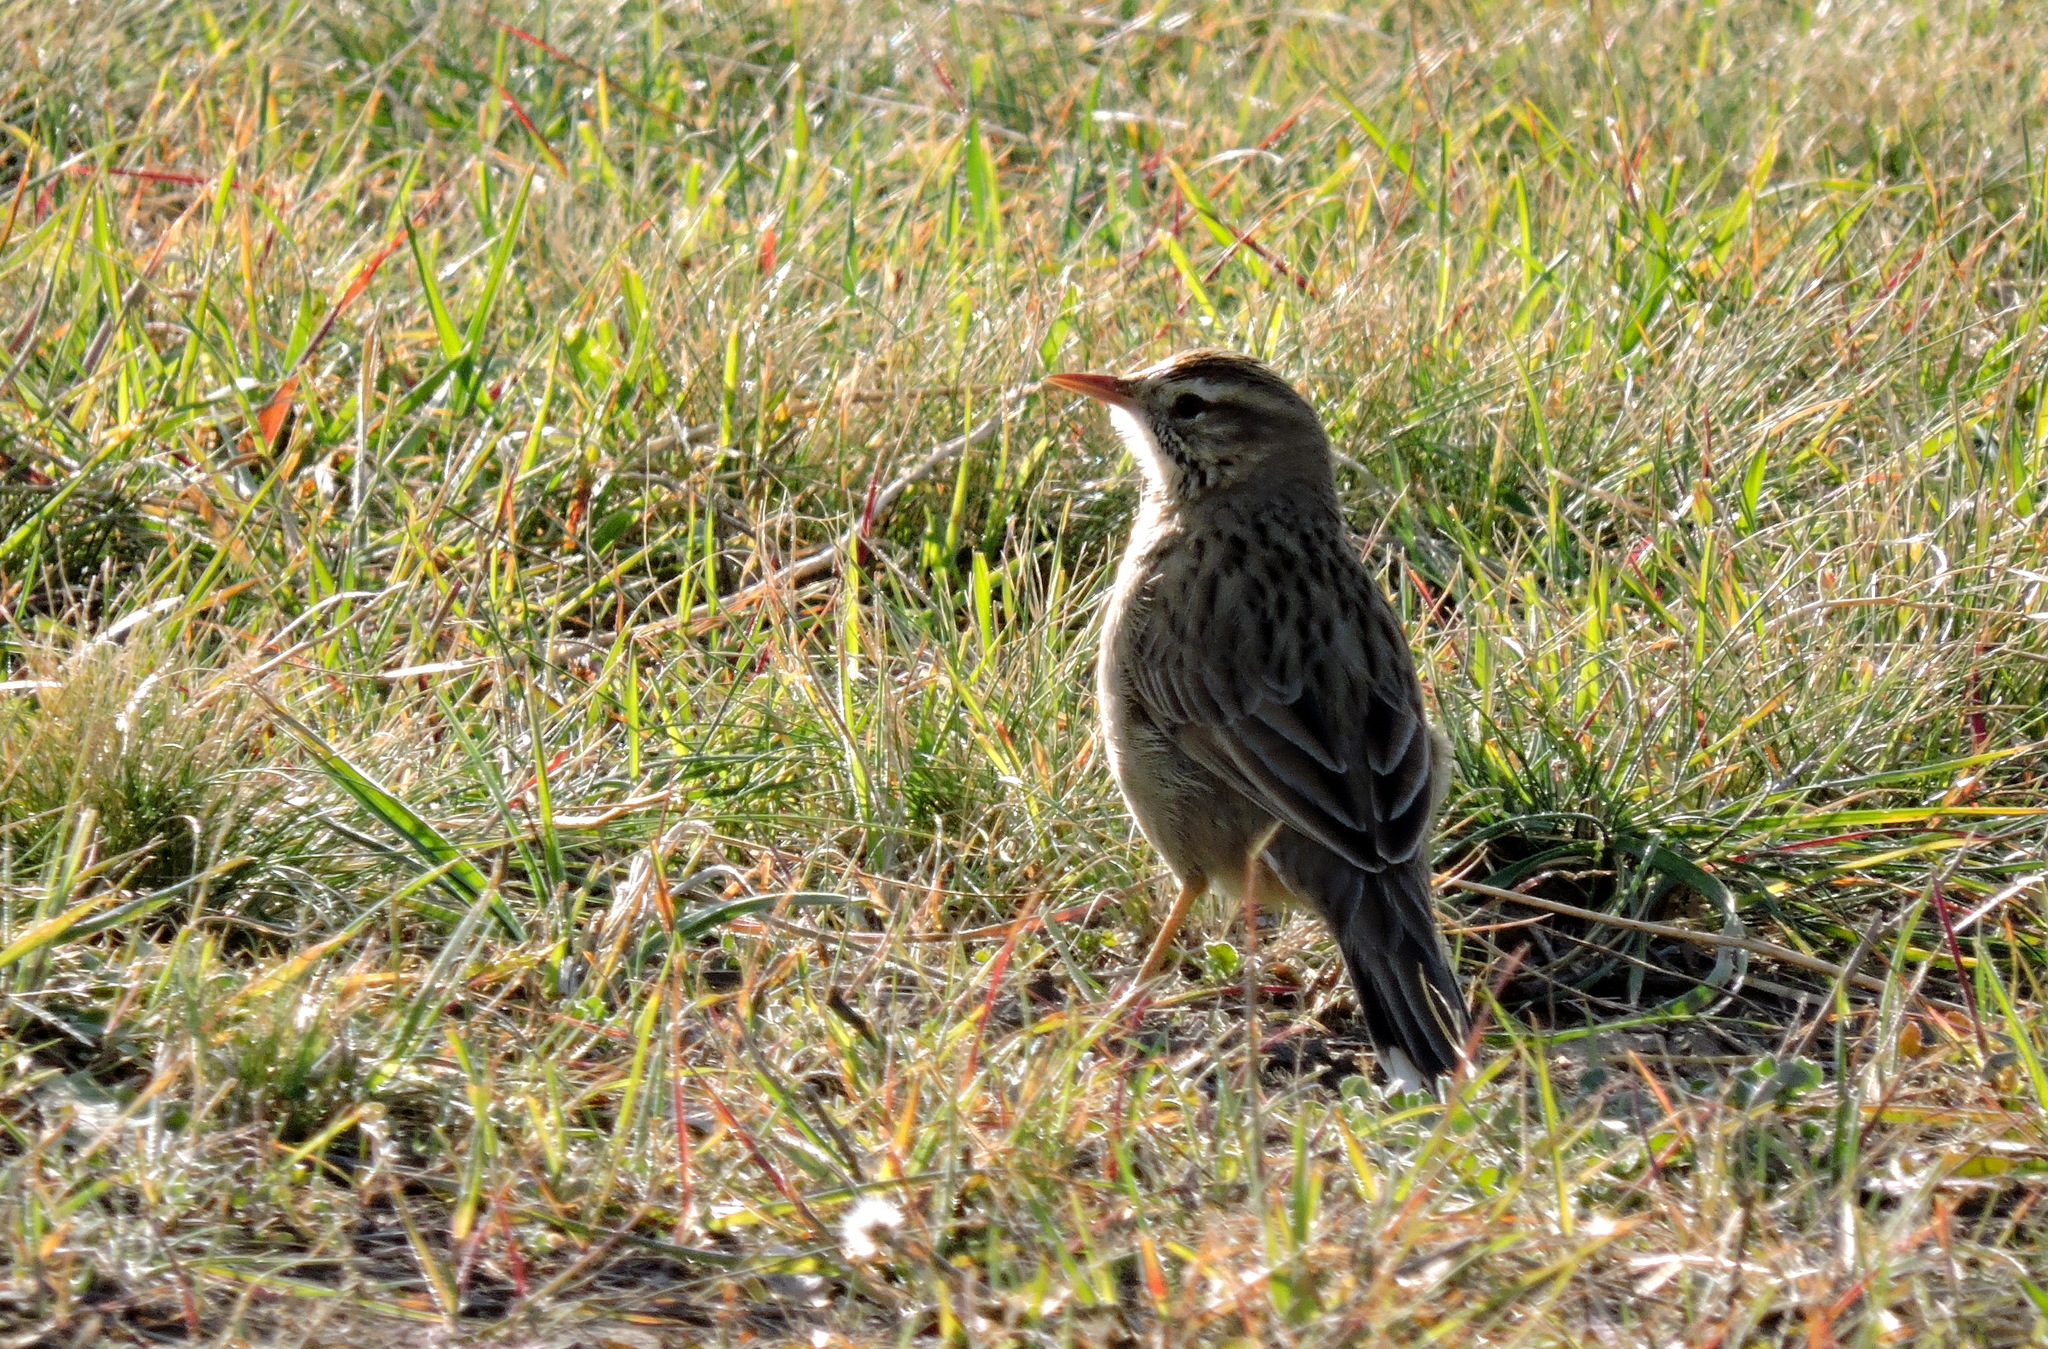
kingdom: Animalia
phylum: Chordata
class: Aves
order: Passeriformes
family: Furnariidae
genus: Anumbius
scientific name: Anumbius annumbi
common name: Firewood-gatherer
